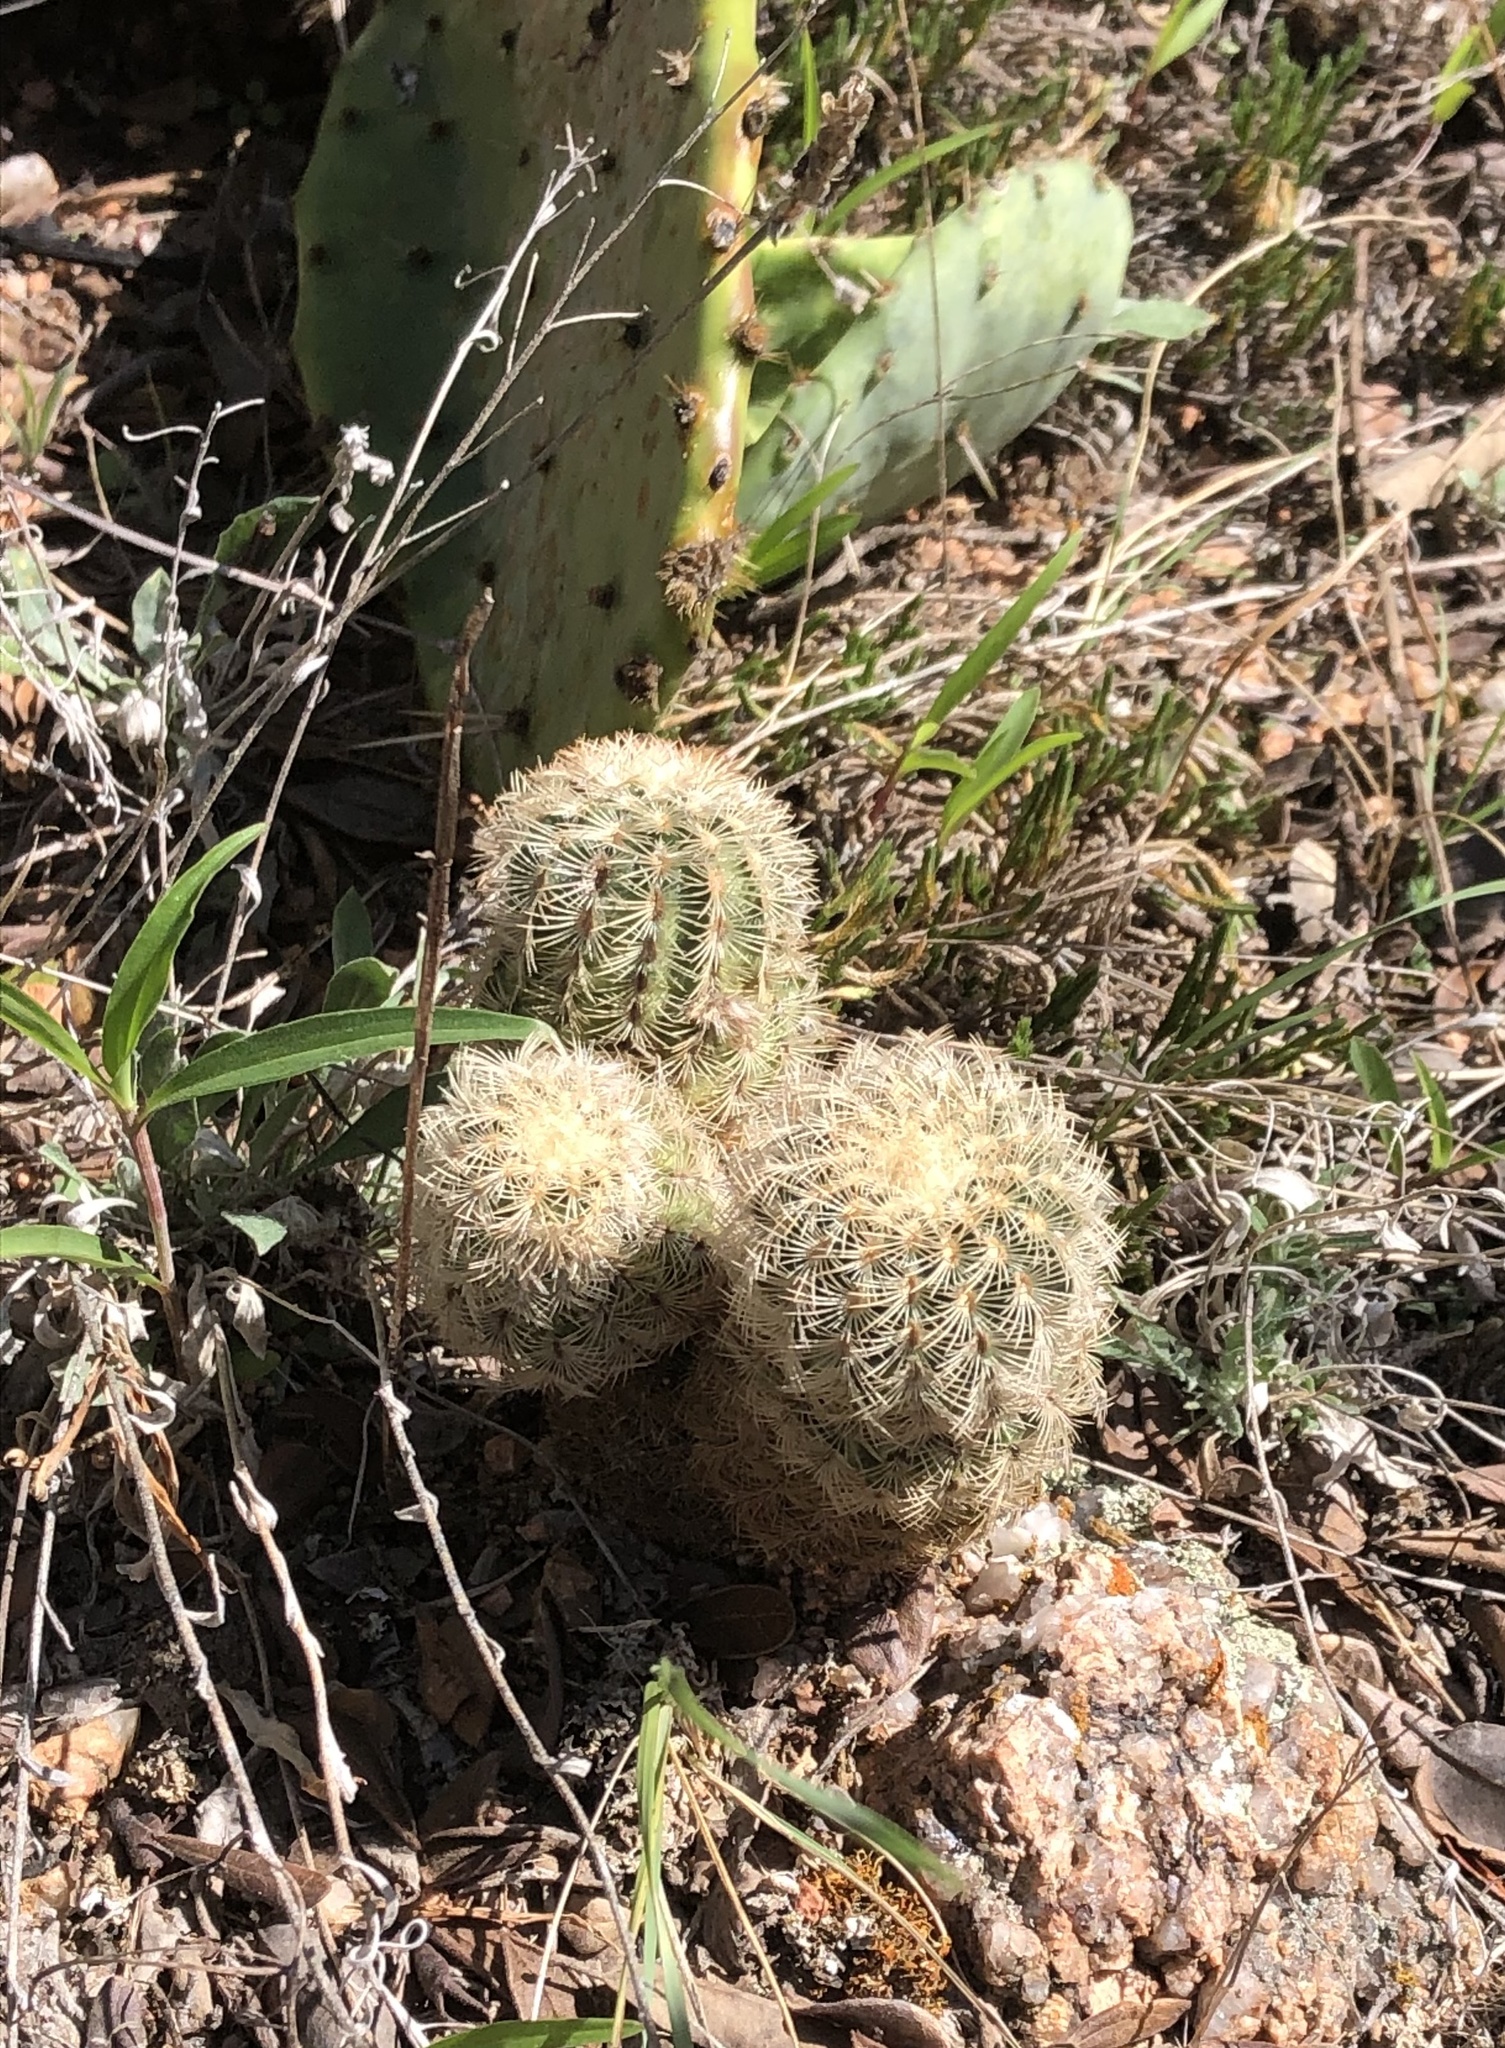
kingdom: Plantae
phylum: Tracheophyta
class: Magnoliopsida
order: Caryophyllales
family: Cactaceae
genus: Echinocereus
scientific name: Echinocereus reichenbachii
